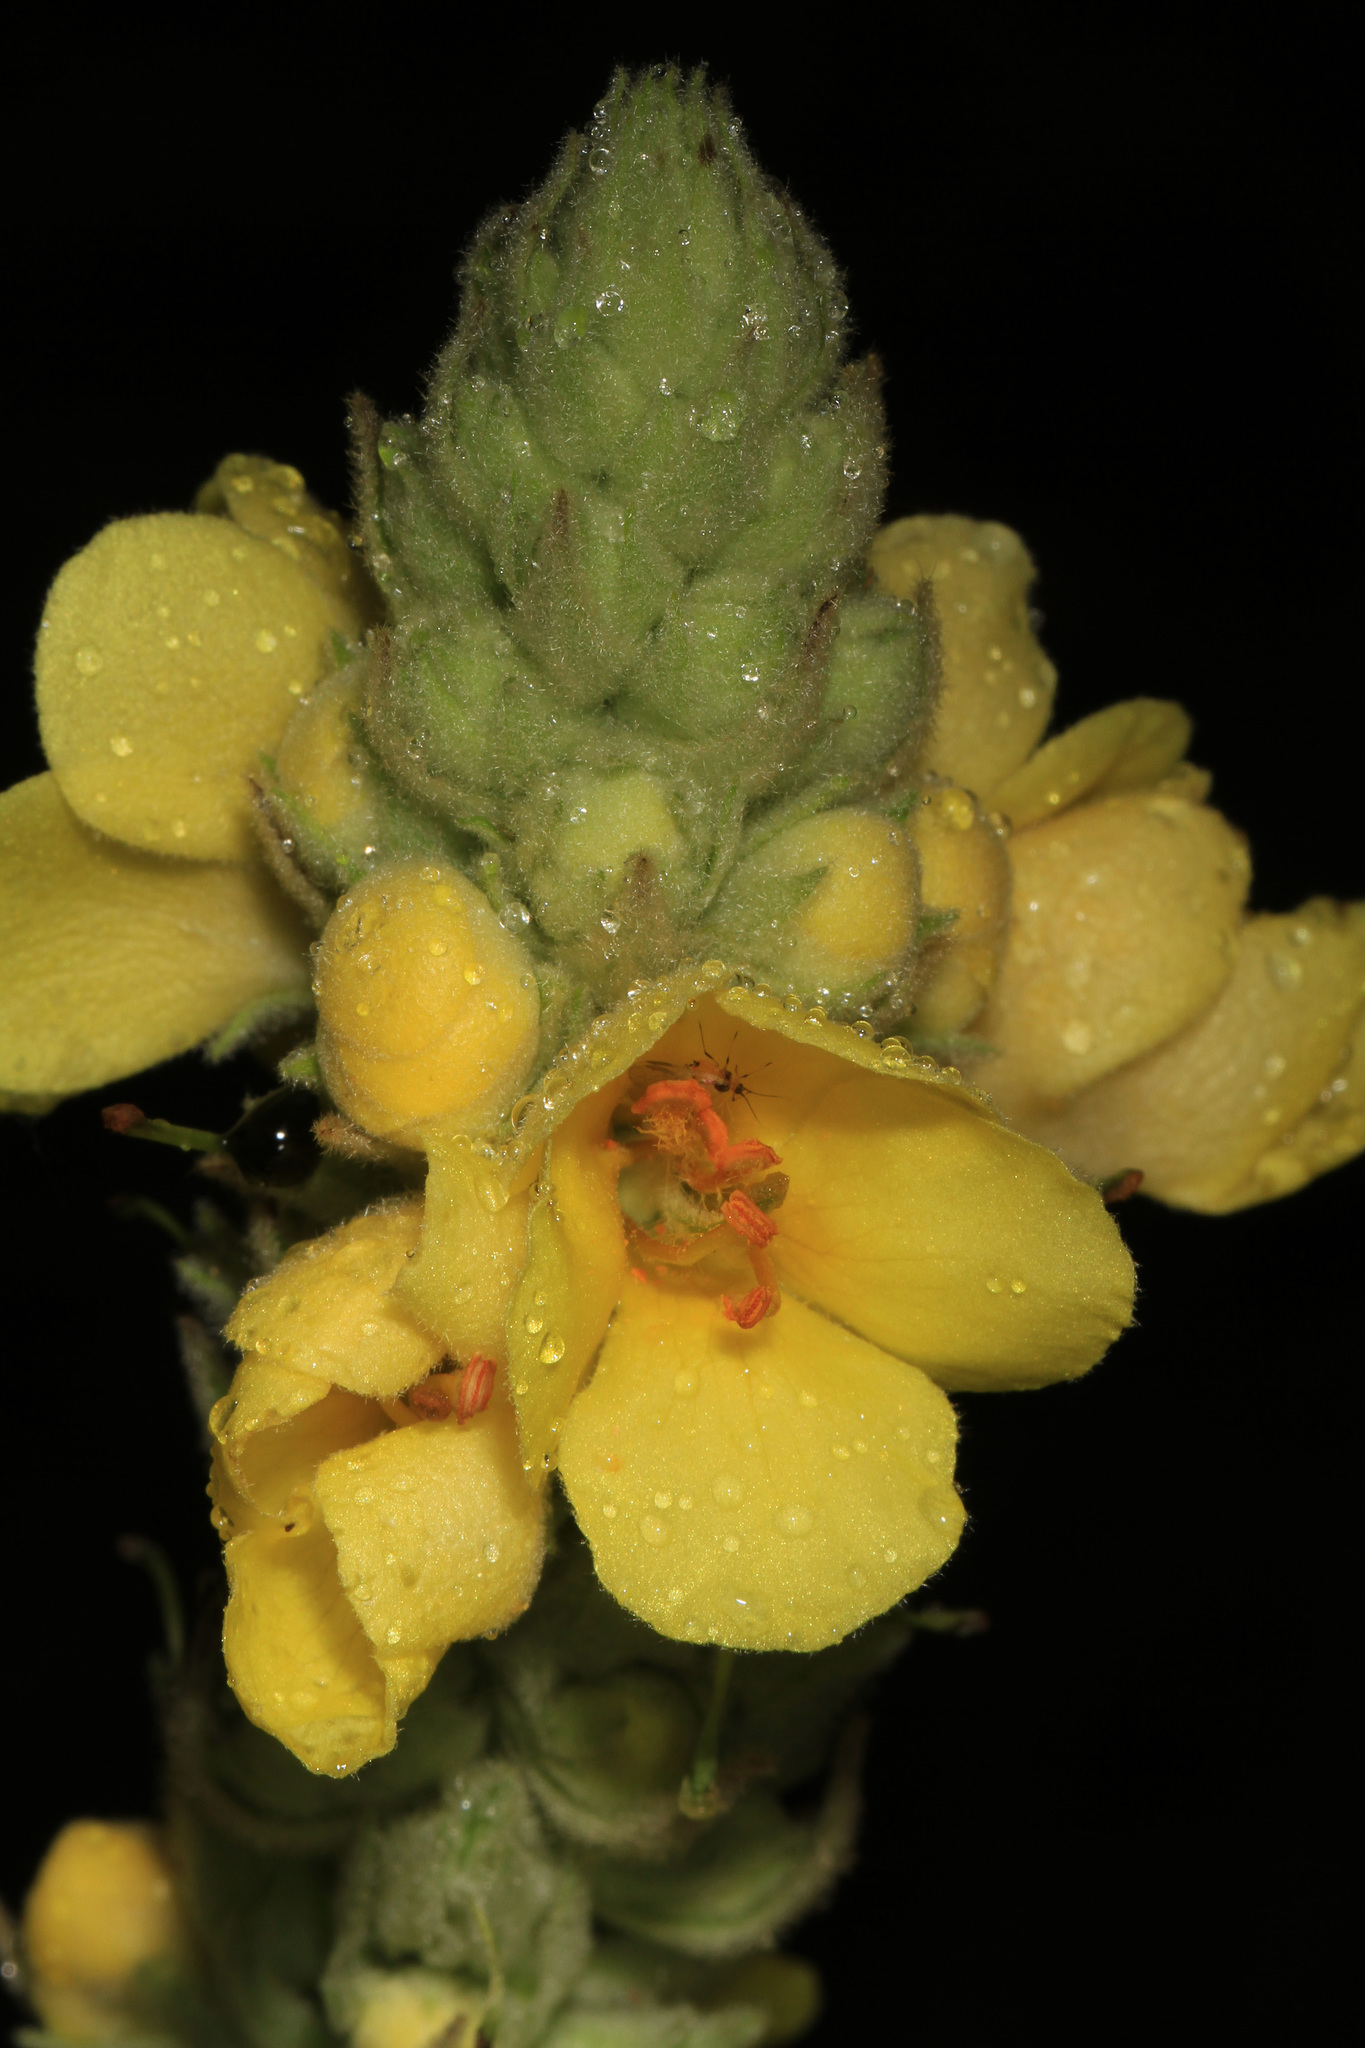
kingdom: Plantae
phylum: Tracheophyta
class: Magnoliopsida
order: Lamiales
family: Scrophulariaceae
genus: Verbascum
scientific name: Verbascum thapsus
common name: Common mullein
